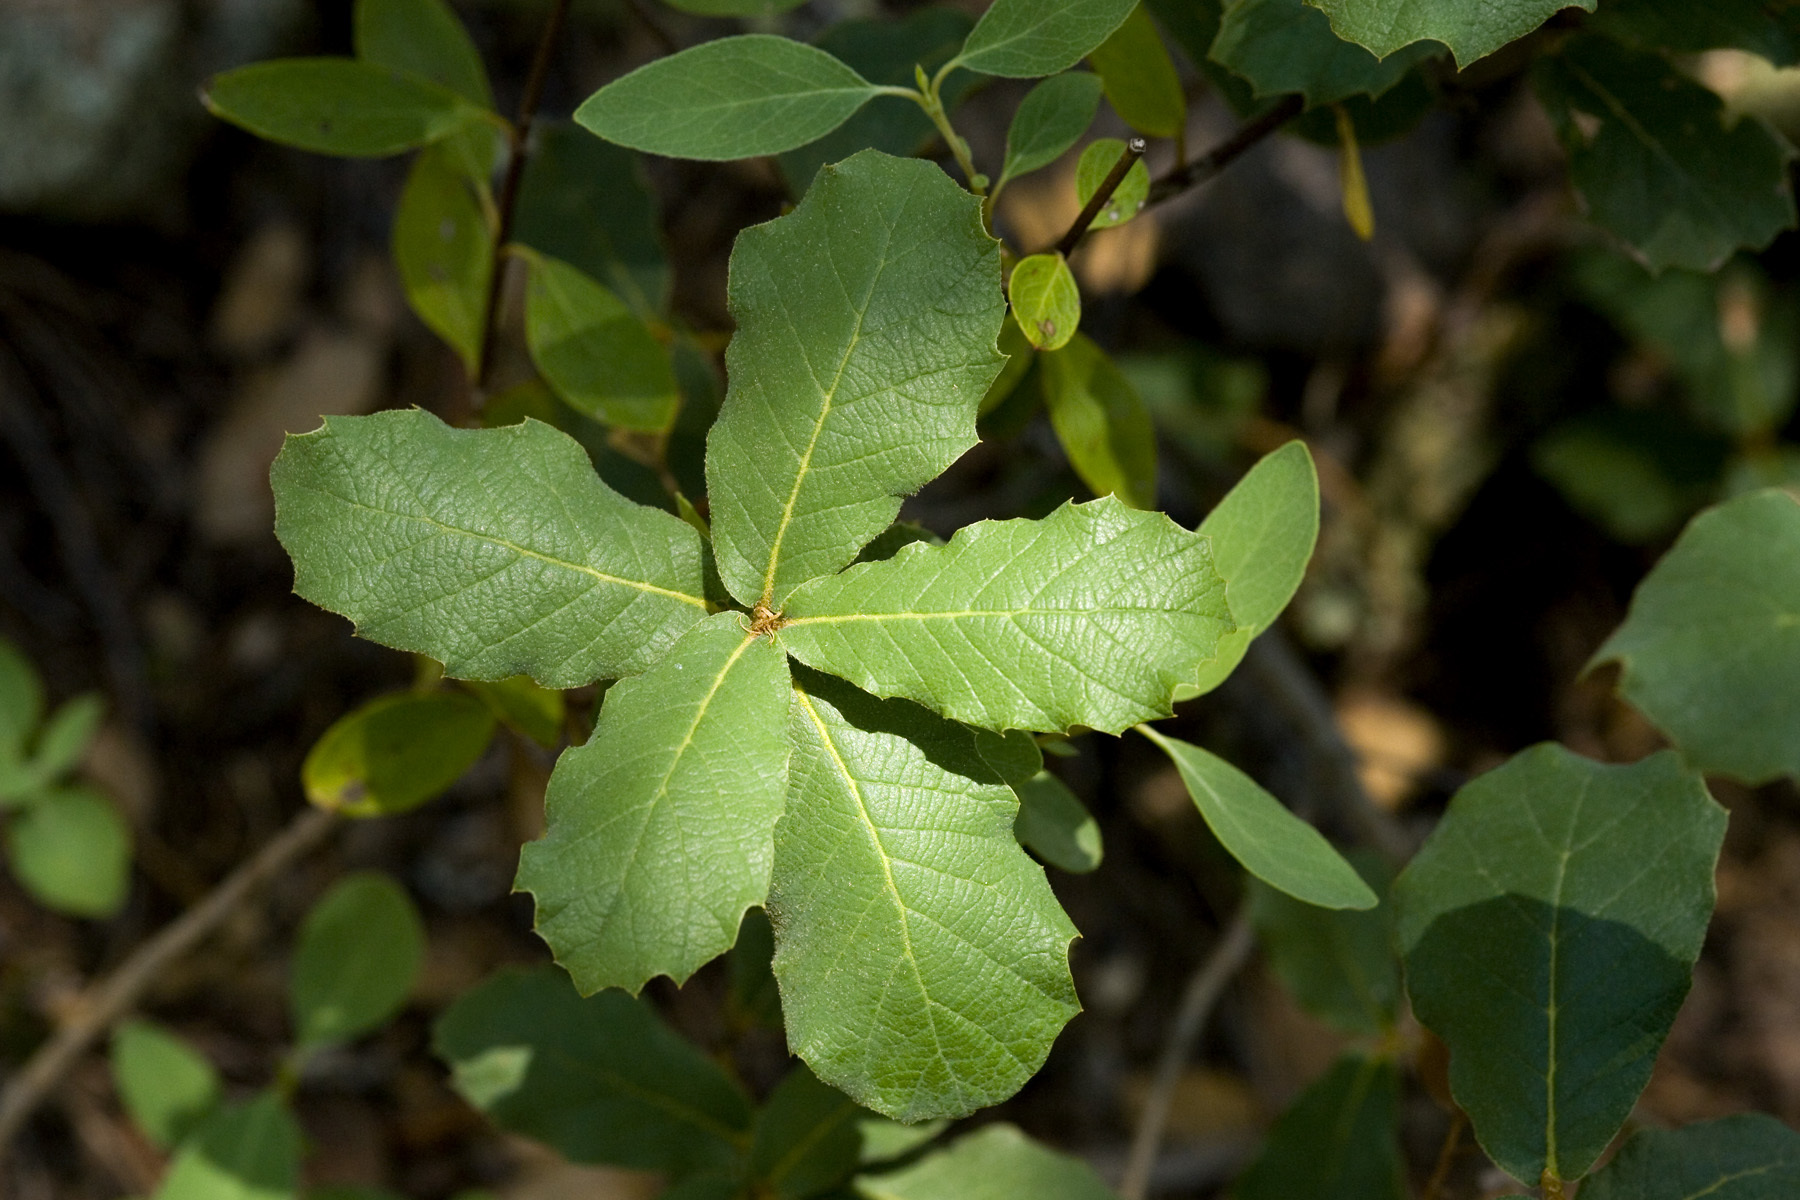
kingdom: Plantae
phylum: Tracheophyta
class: Magnoliopsida
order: Fagales
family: Fagaceae
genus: Quercus
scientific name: Quercus rugosa
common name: Netleaf oak
